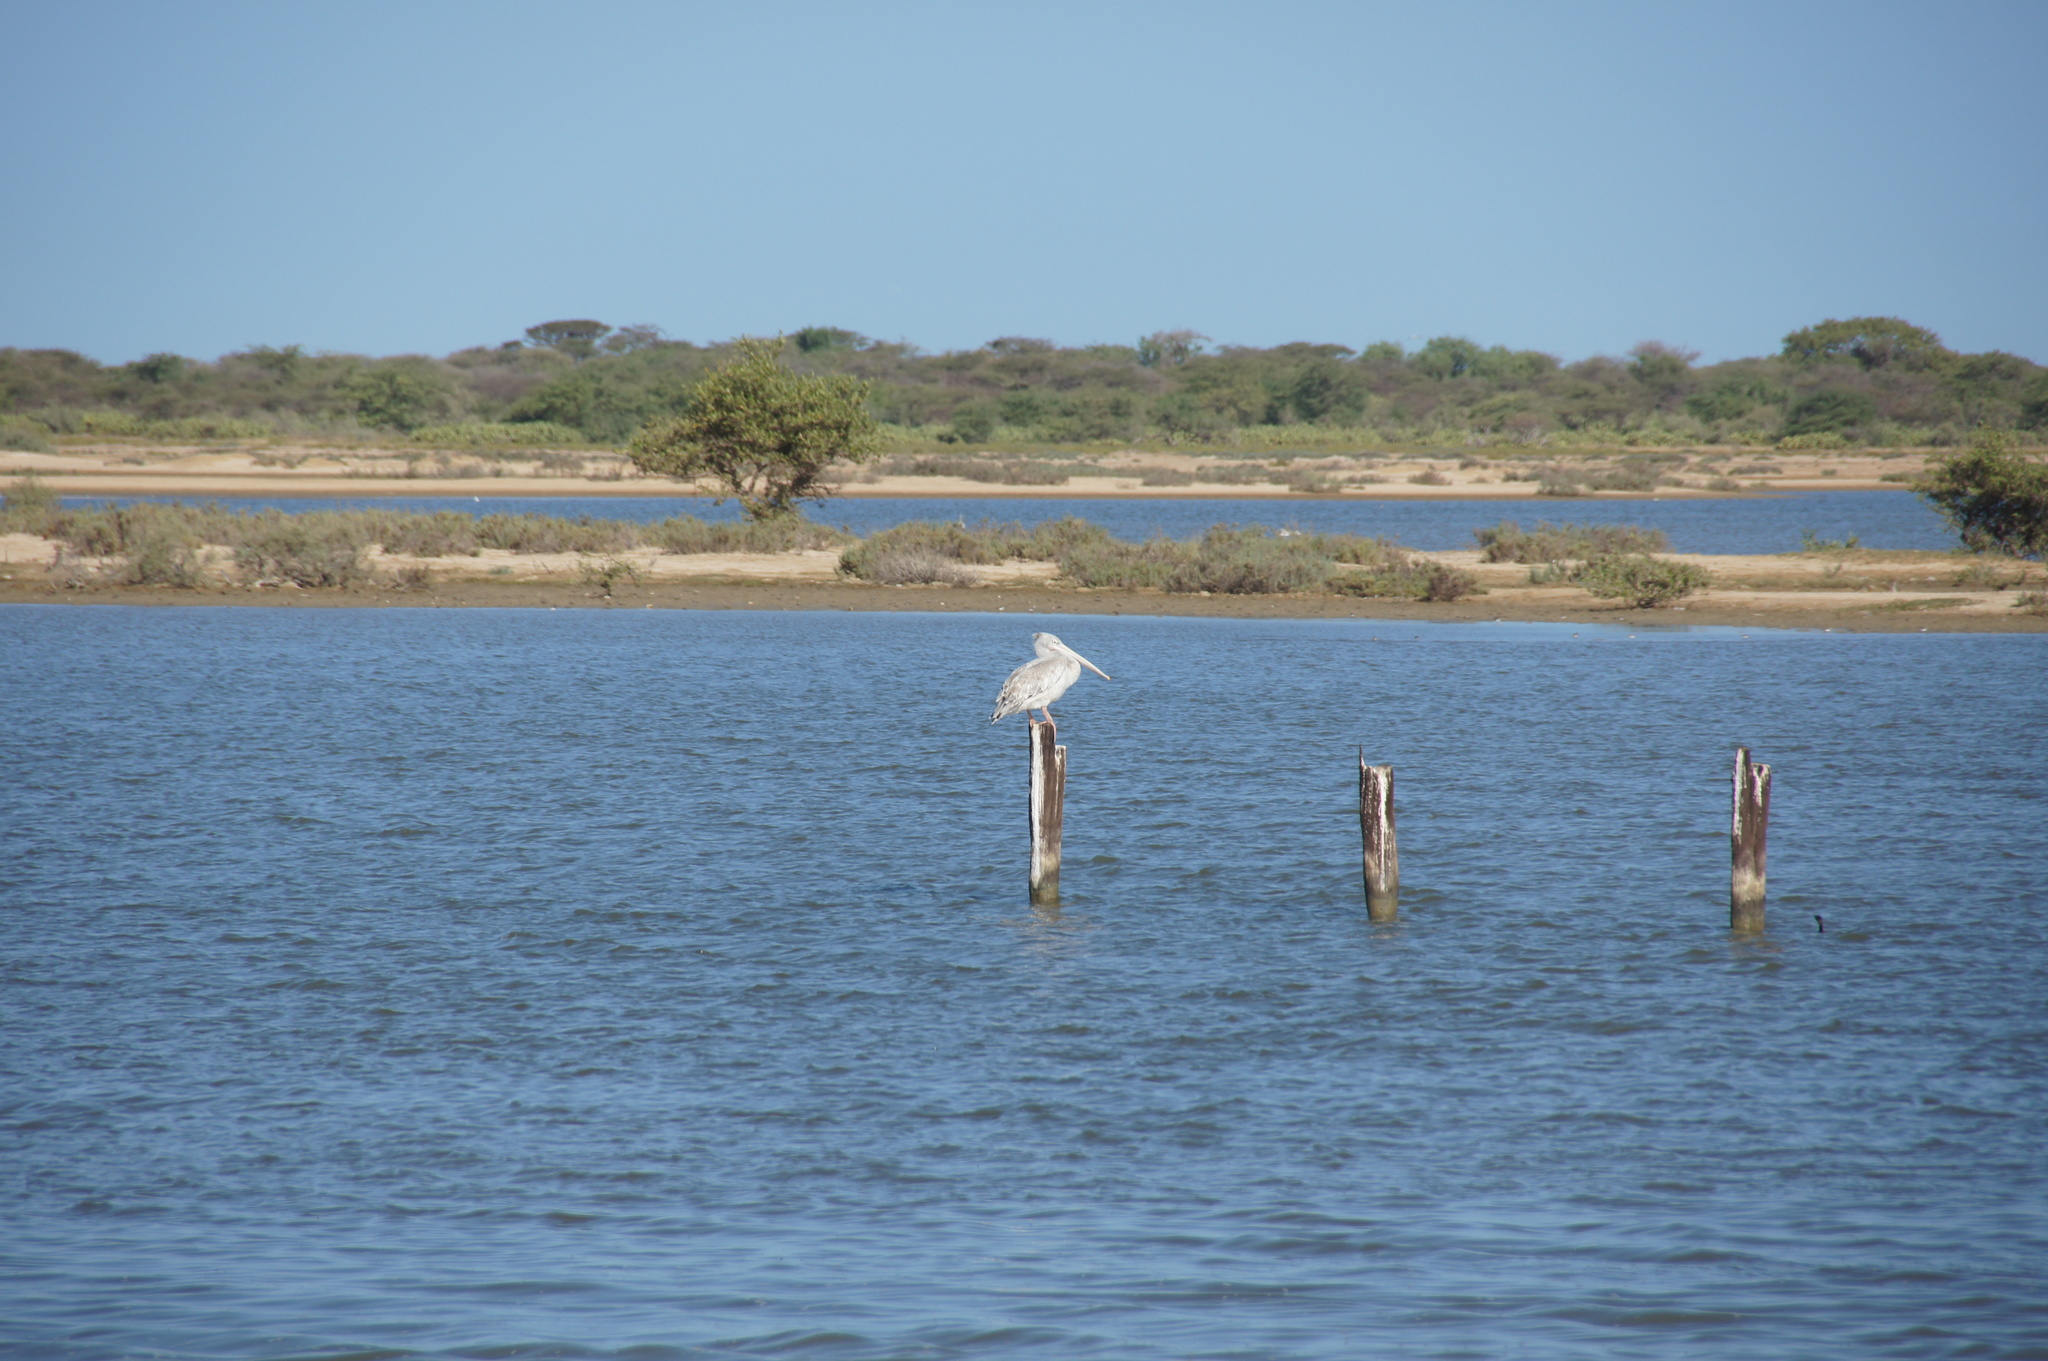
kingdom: Animalia
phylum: Chordata
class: Aves
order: Pelecaniformes
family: Pelecanidae
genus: Pelecanus
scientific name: Pelecanus rufescens
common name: Pink-backed pelican
